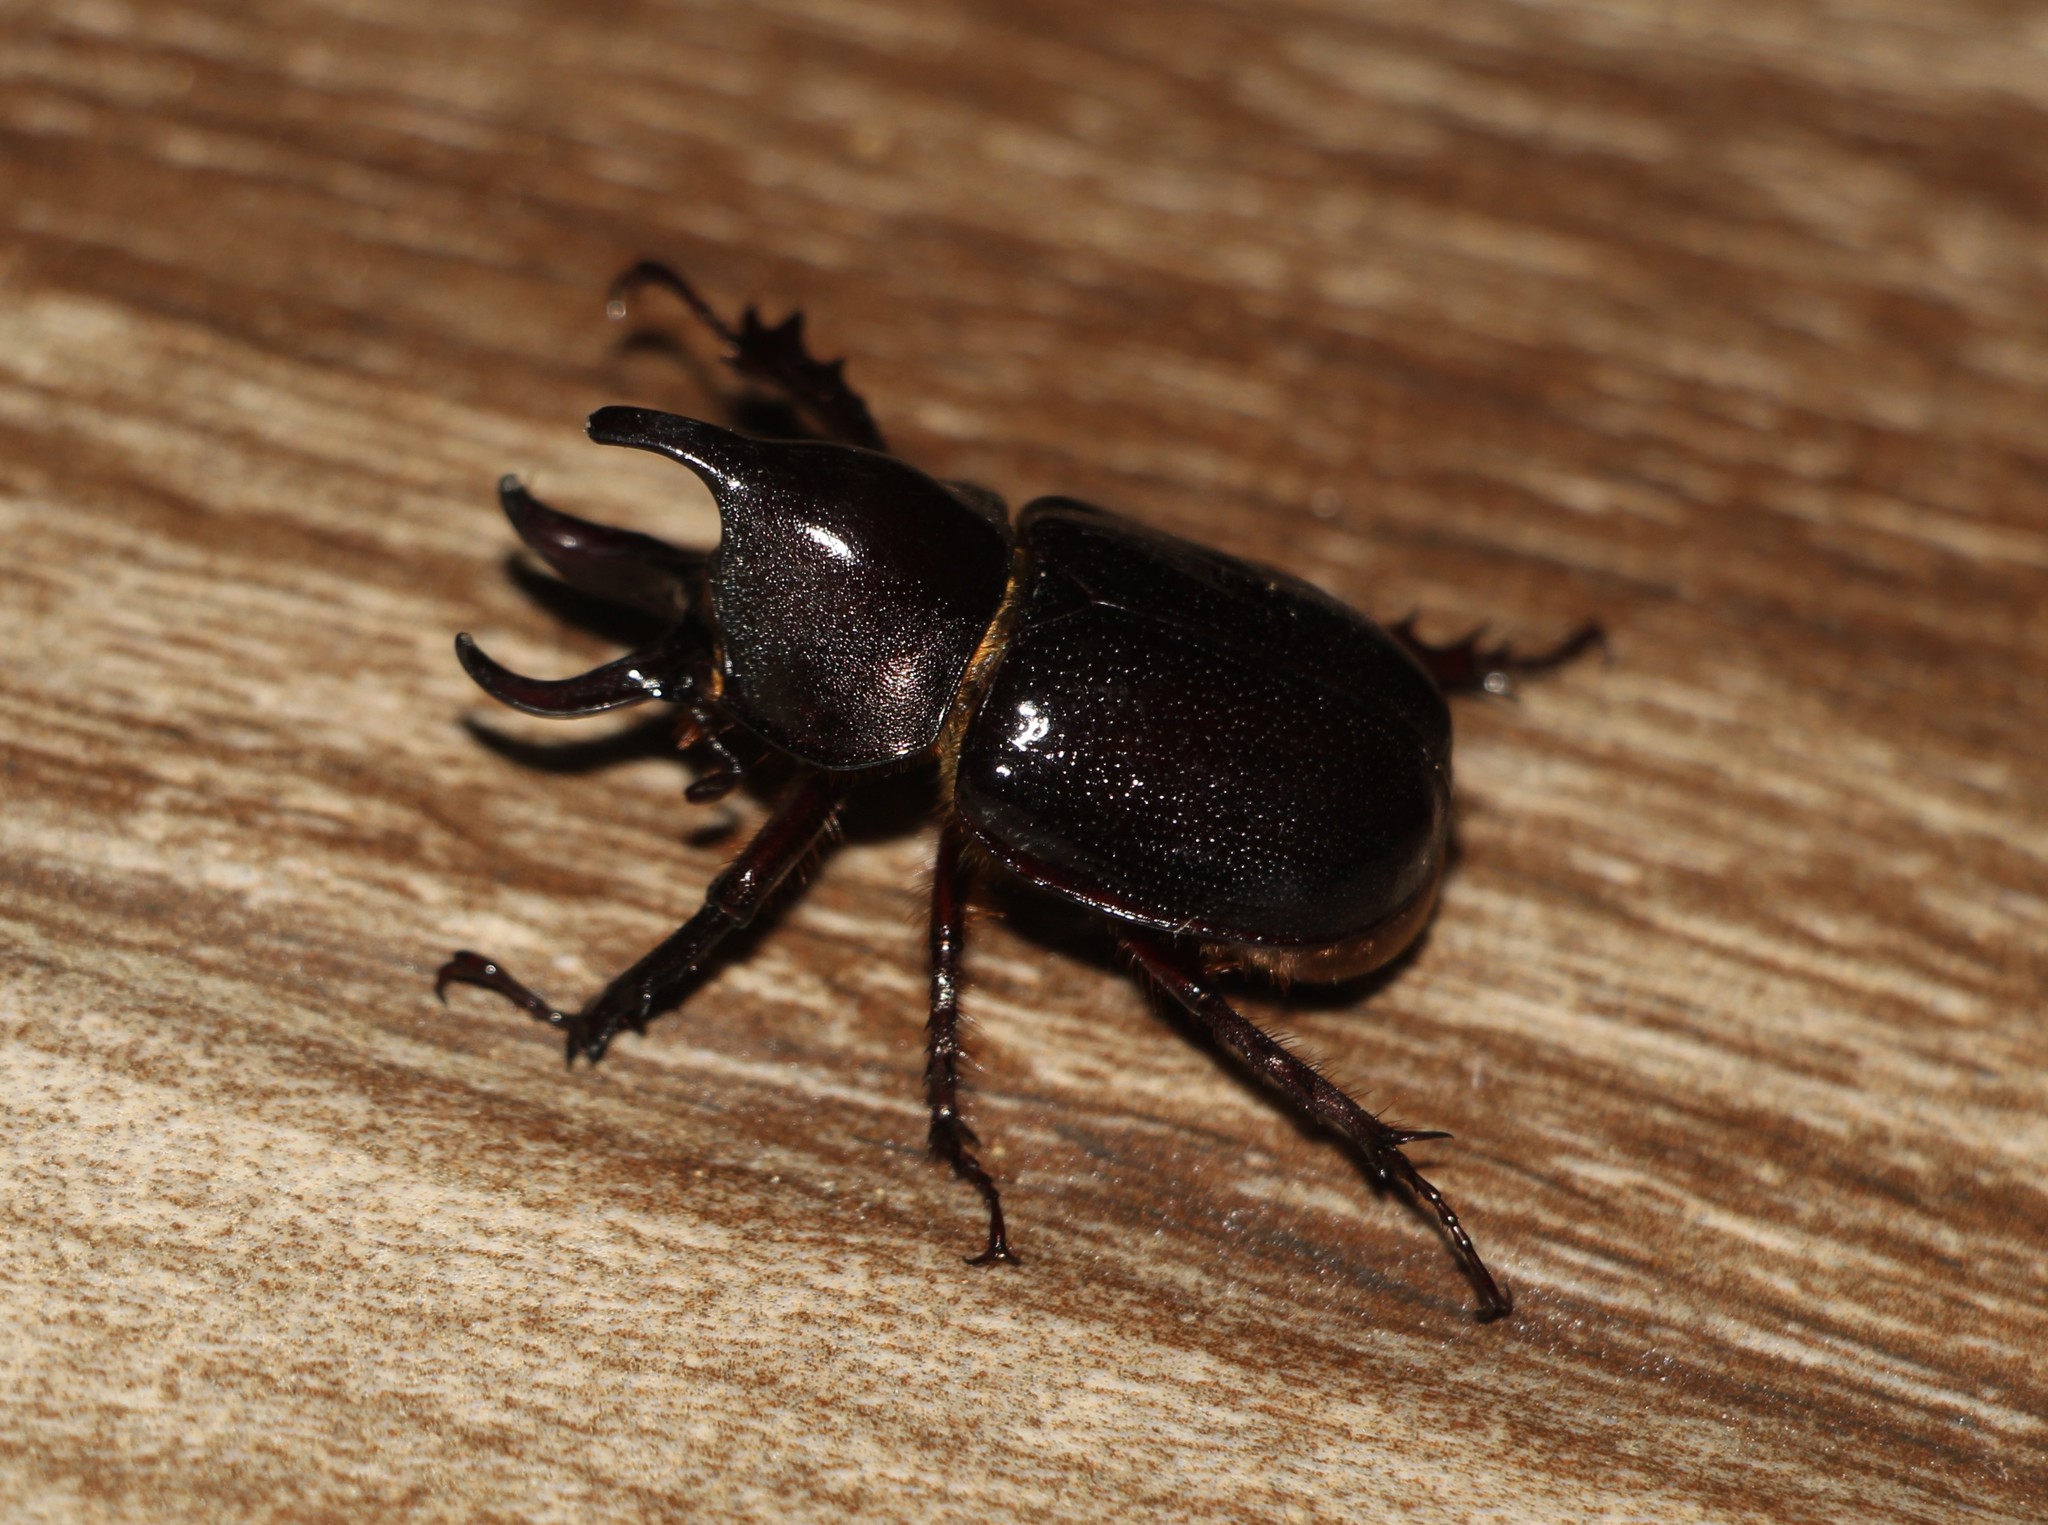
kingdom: Animalia
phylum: Arthropoda
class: Insecta
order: Coleoptera
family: Scarabaeidae
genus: Aegopsis
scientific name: Aegopsis curvicornis
